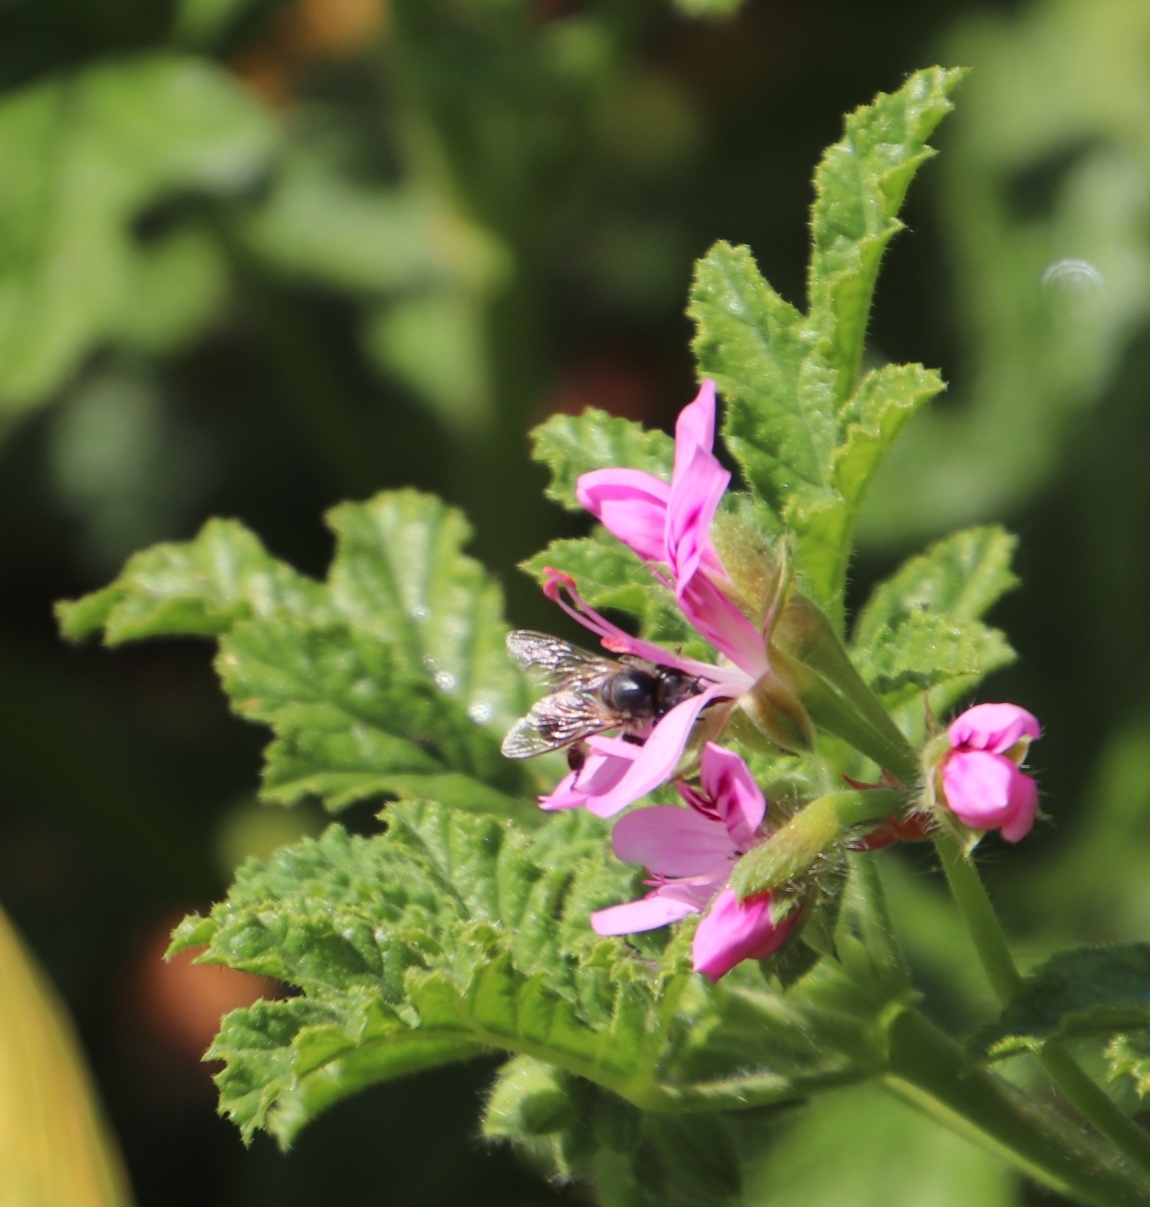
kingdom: Animalia
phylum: Arthropoda
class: Insecta
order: Hymenoptera
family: Apidae
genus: Apis
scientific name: Apis mellifera
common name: Honey bee
